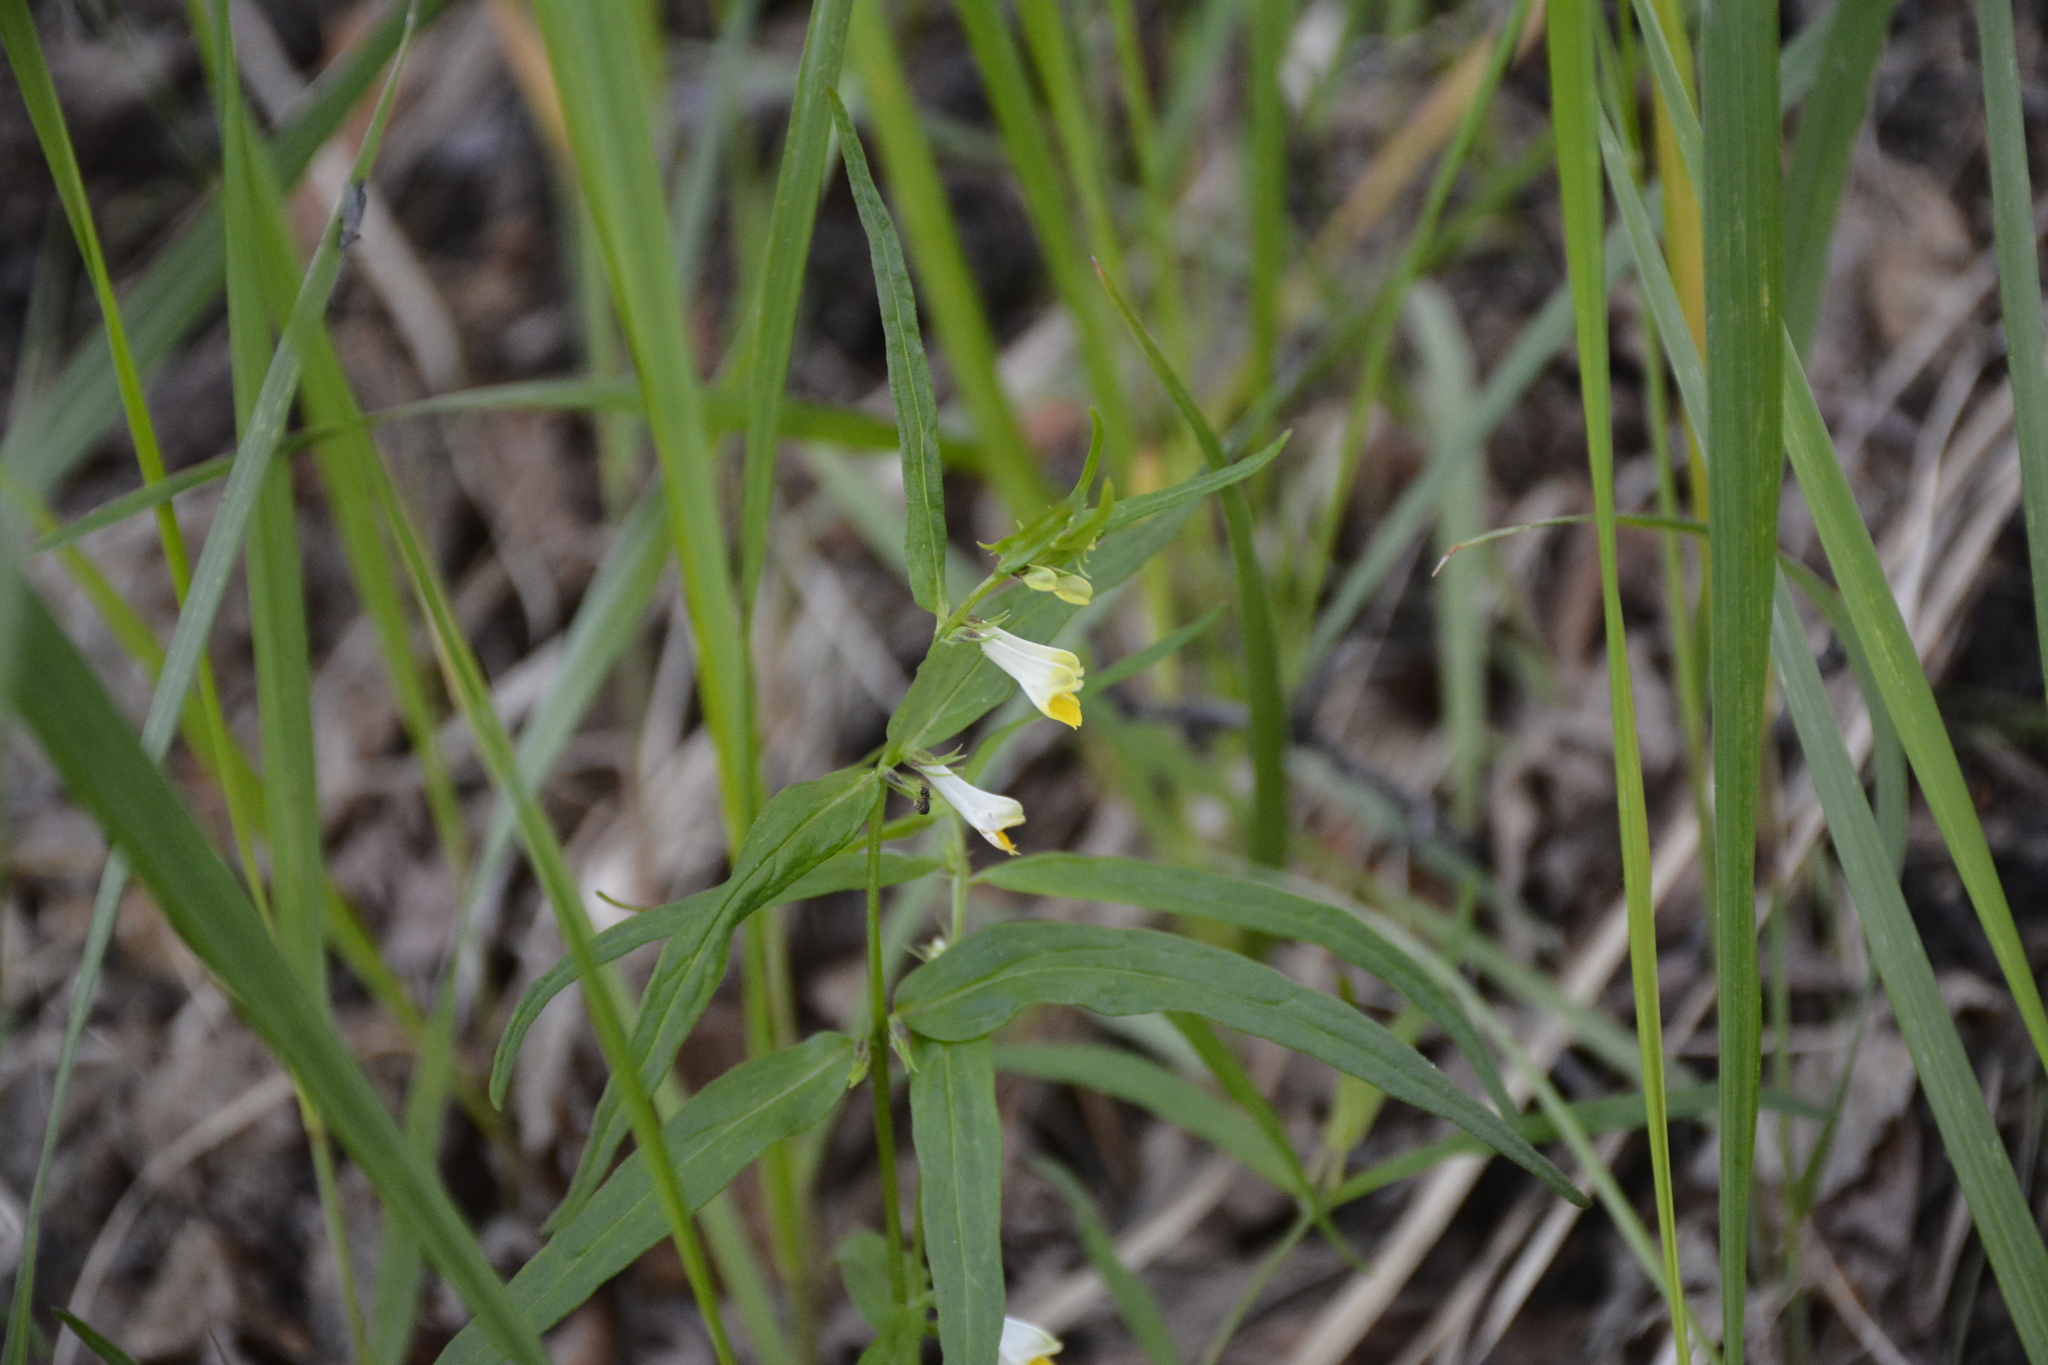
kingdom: Plantae
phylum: Tracheophyta
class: Magnoliopsida
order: Lamiales
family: Orobanchaceae
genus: Melampyrum
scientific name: Melampyrum pratense
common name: Common cow-wheat
